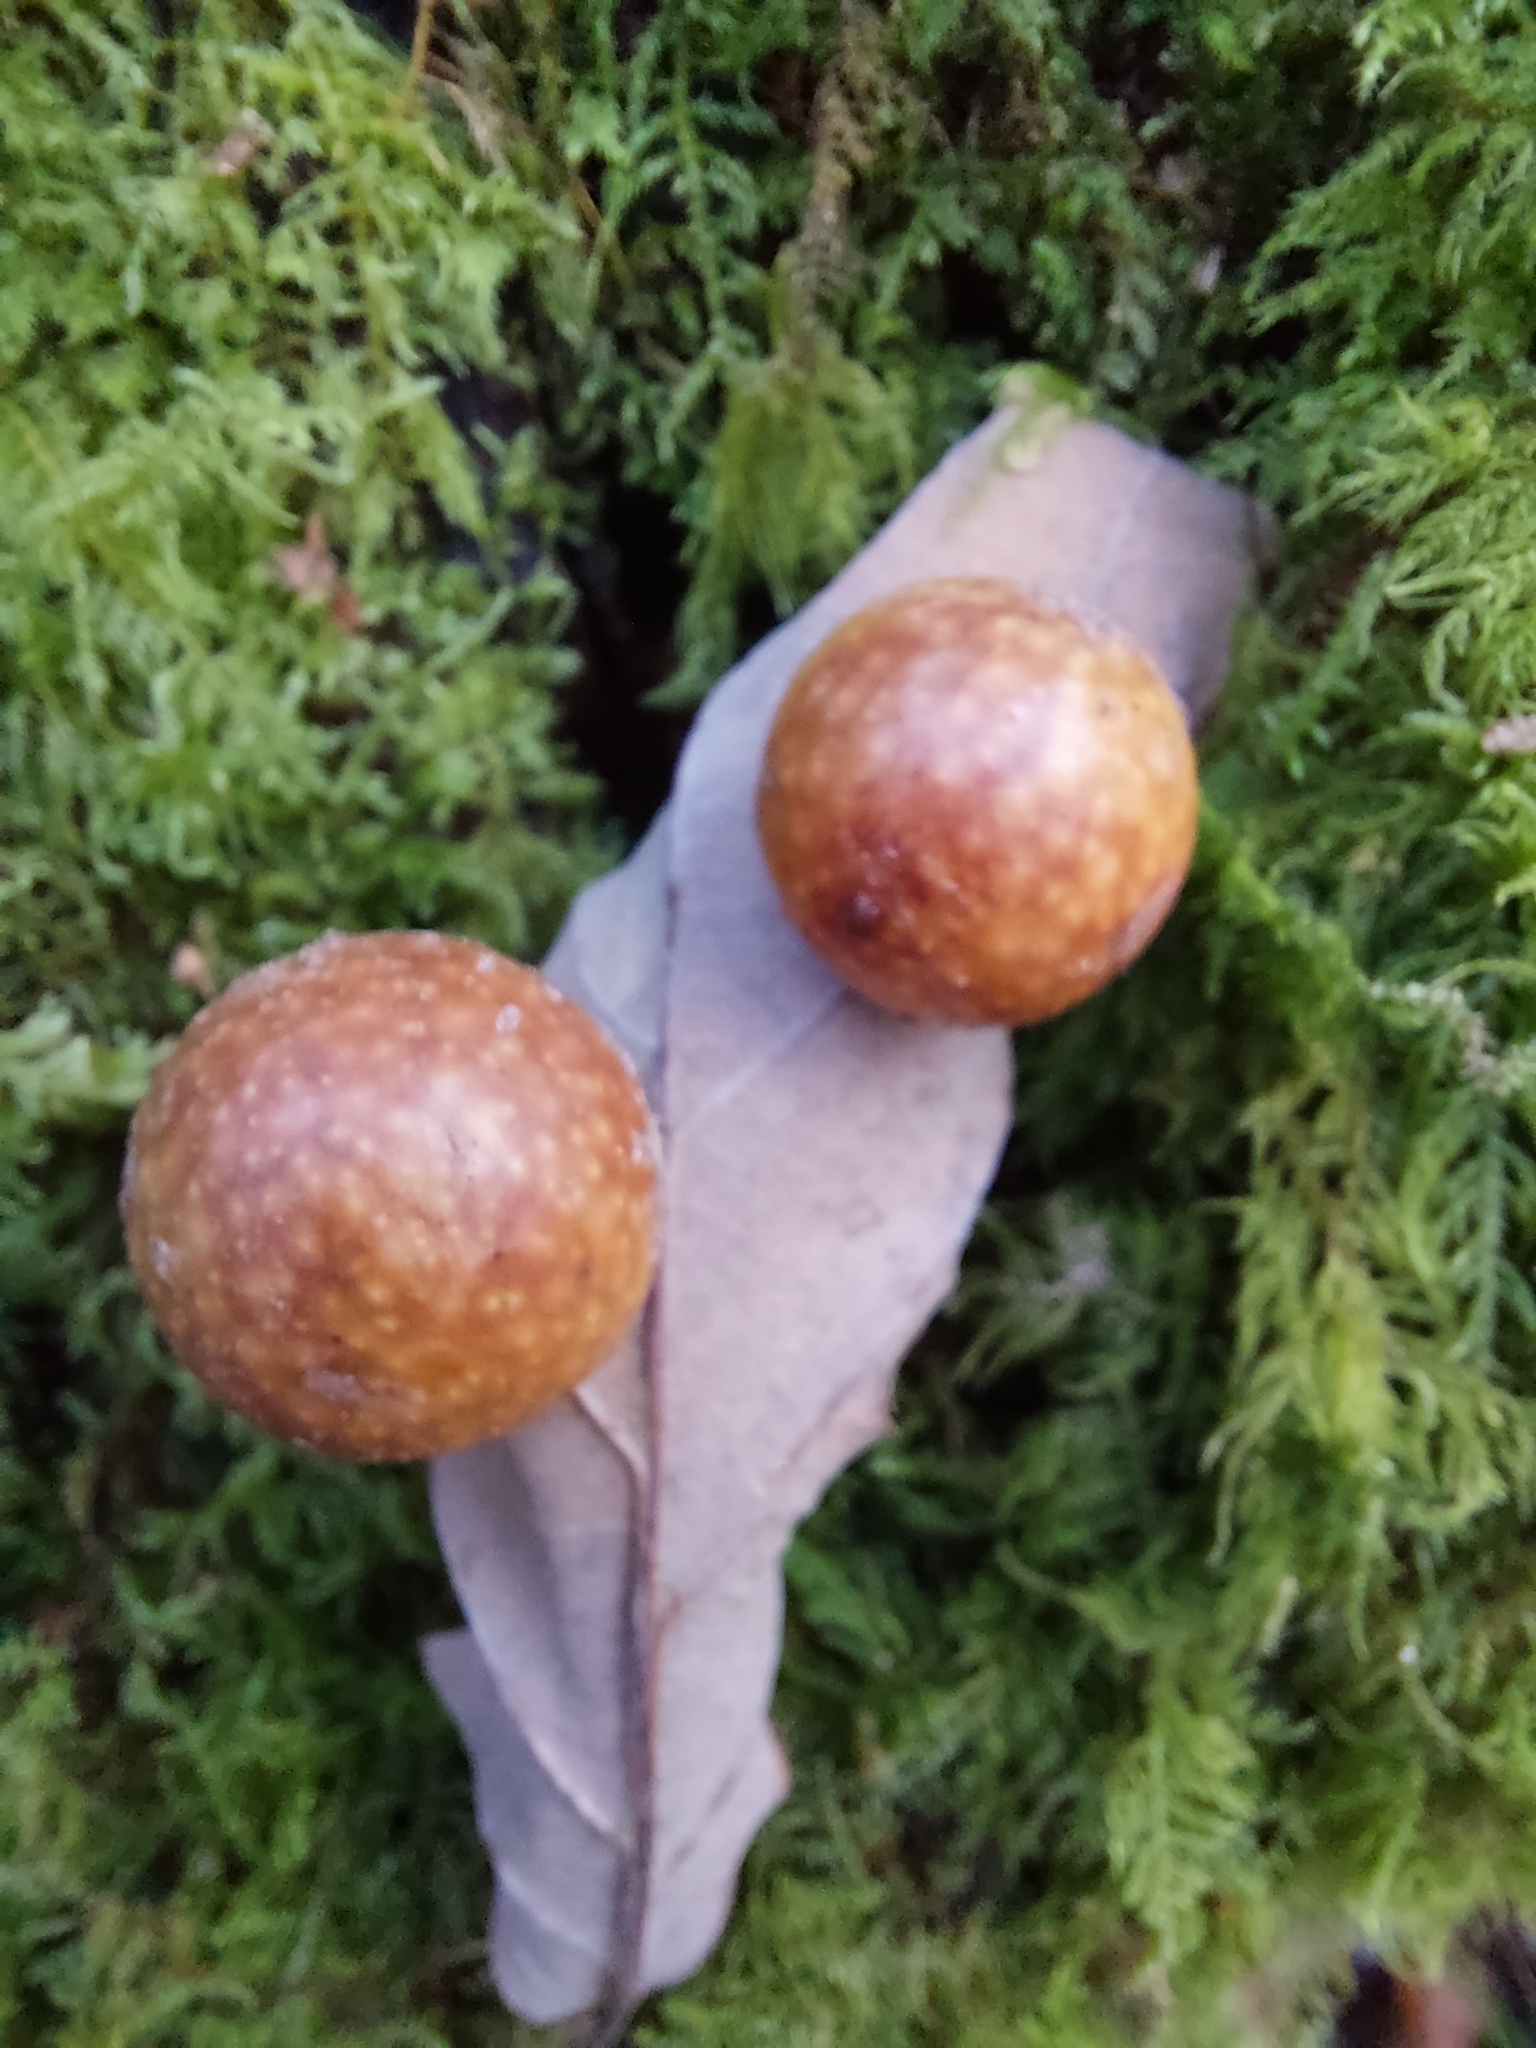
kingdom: Animalia
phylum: Arthropoda
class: Insecta
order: Hymenoptera
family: Cynipidae
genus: Cynips
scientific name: Cynips quercusfolii
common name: Cherry gall
